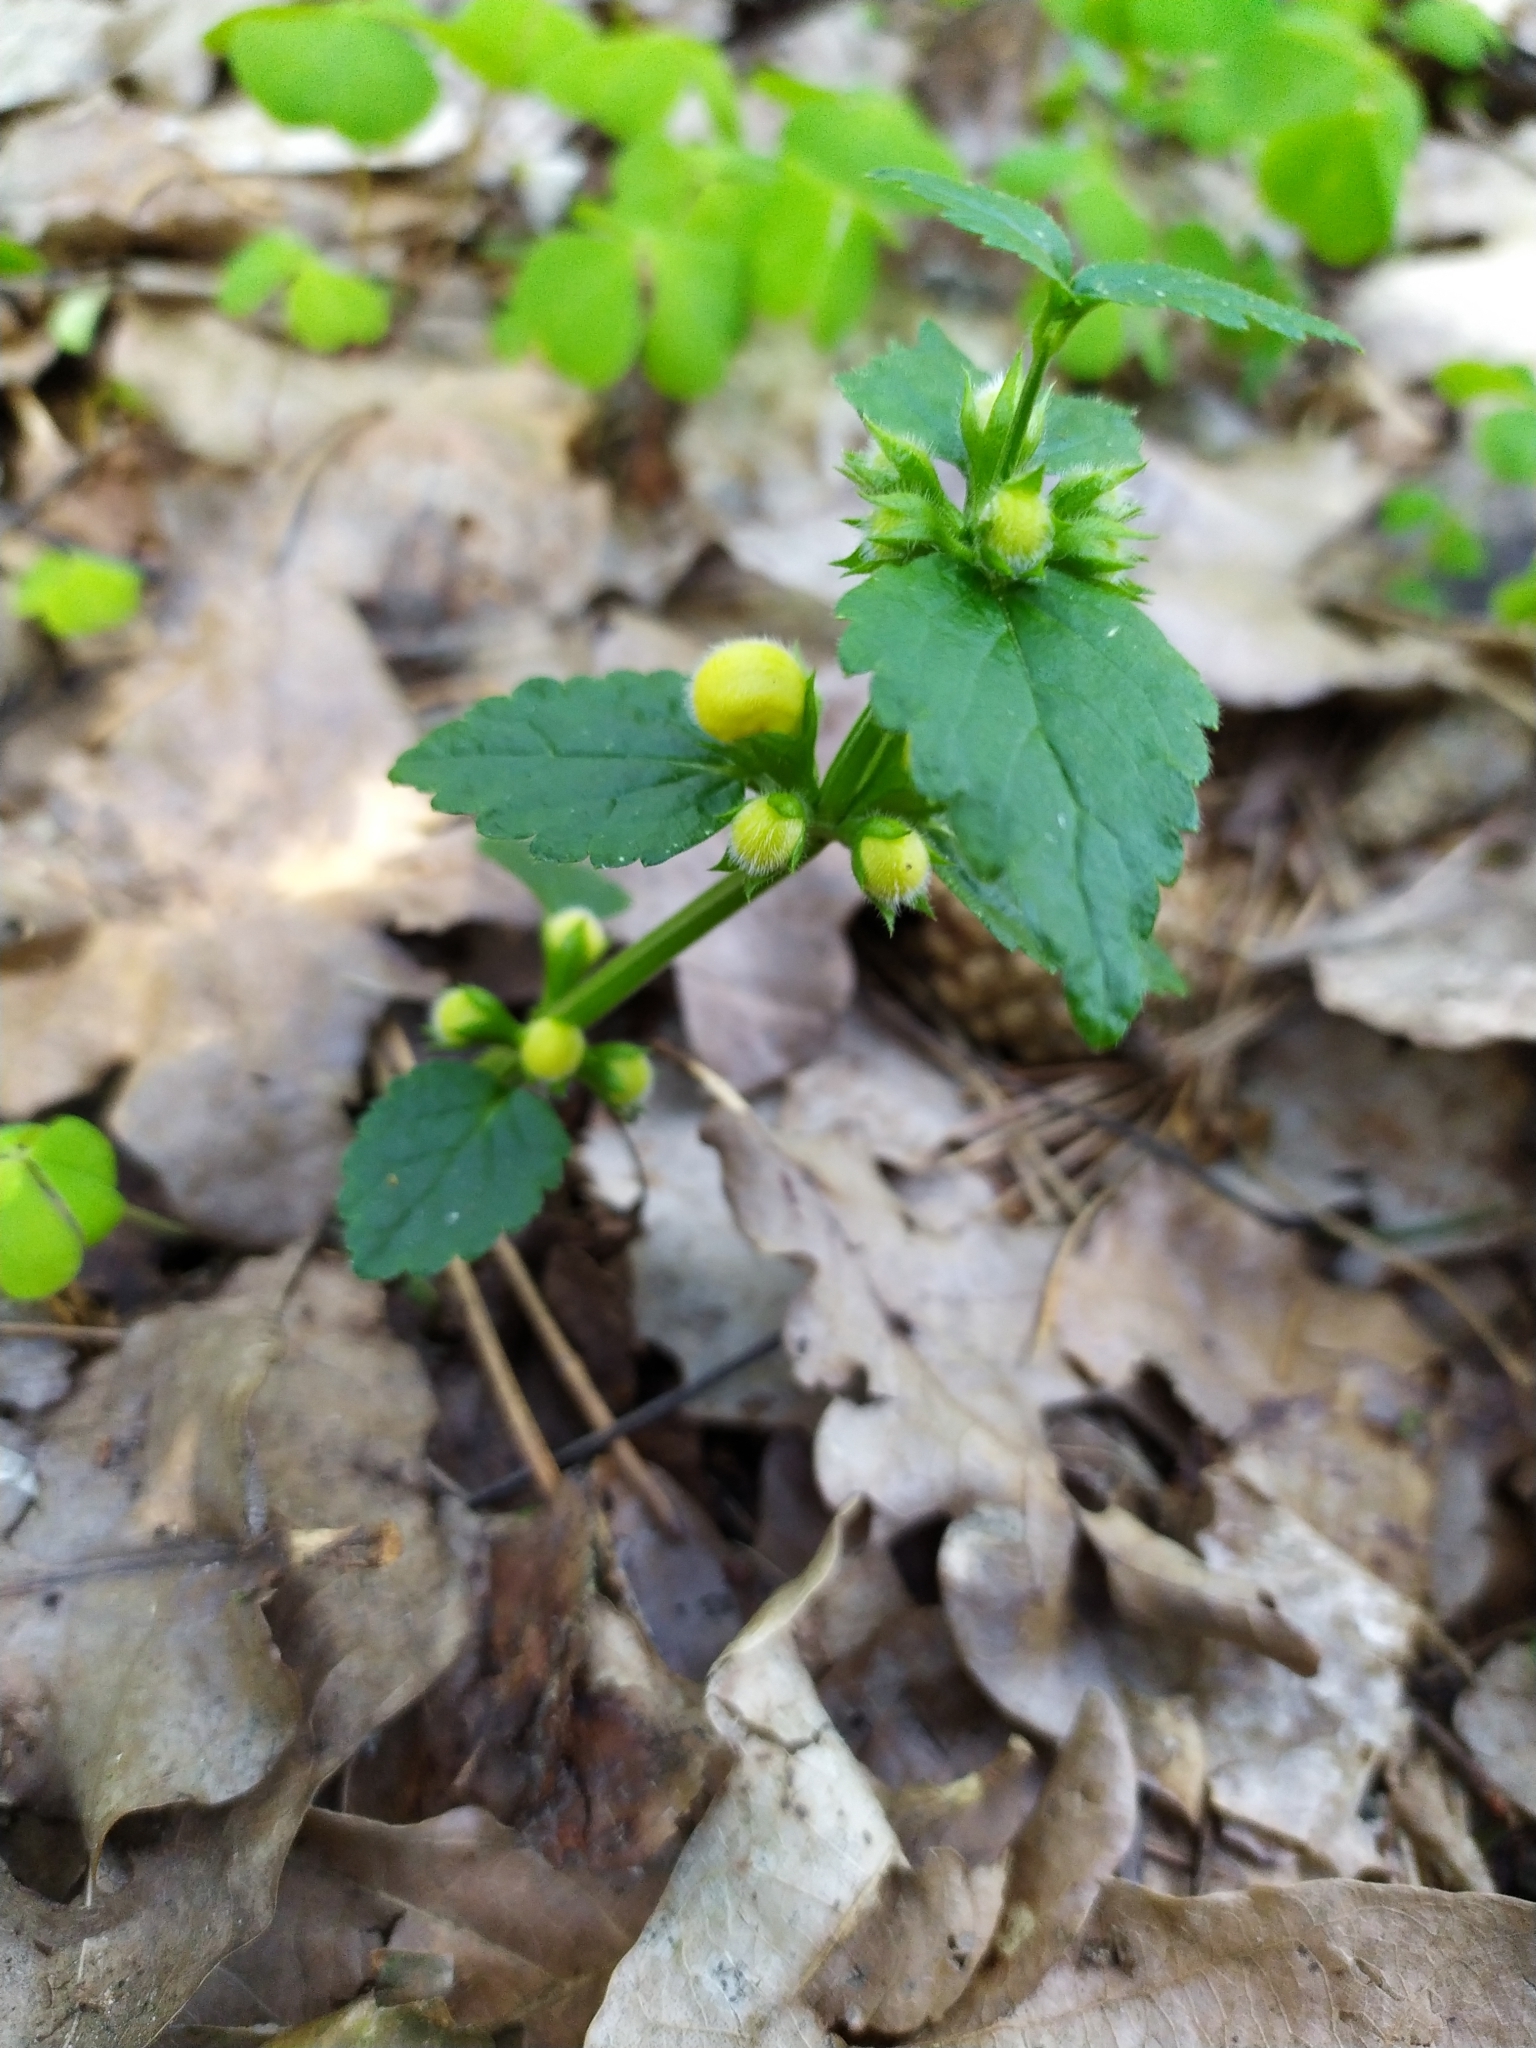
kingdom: Plantae
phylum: Tracheophyta
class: Magnoliopsida
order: Lamiales
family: Lamiaceae
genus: Lamium
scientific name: Lamium galeobdolon
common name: Yellow archangel
